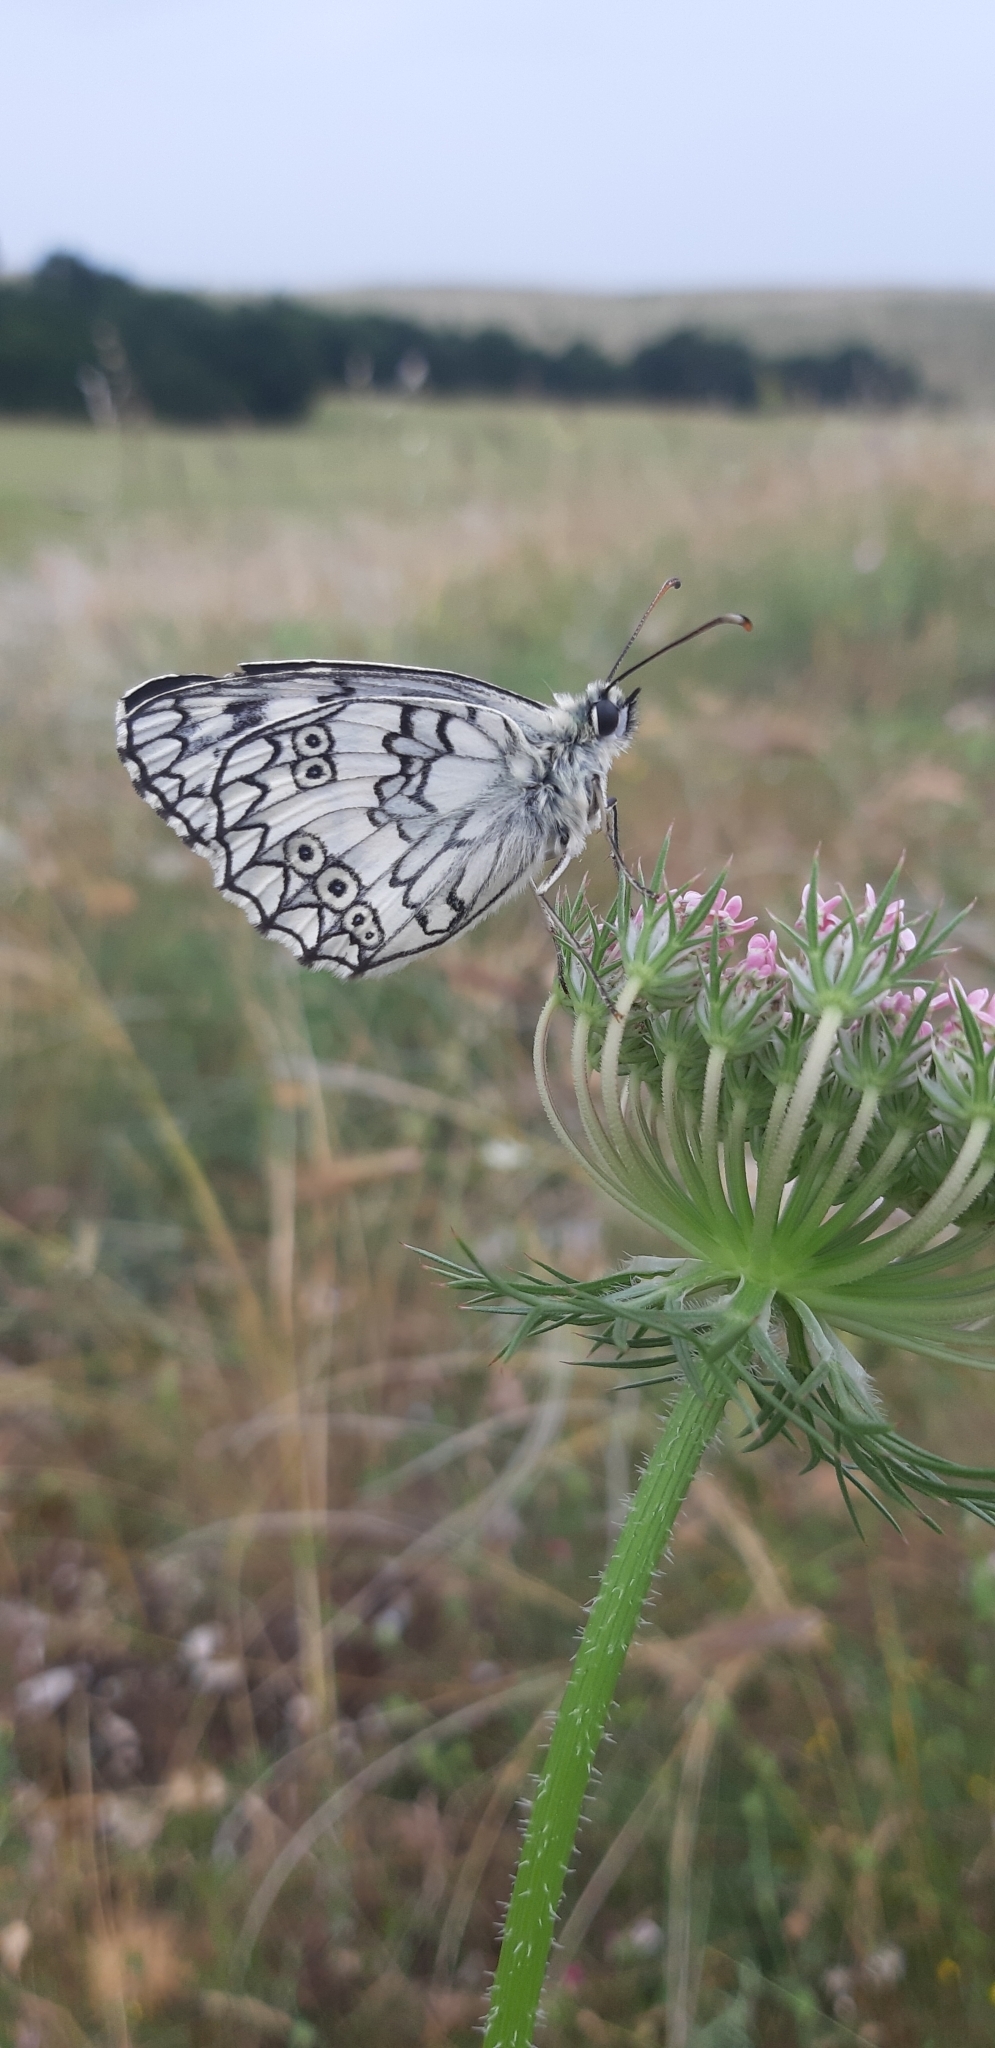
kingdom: Animalia
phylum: Arthropoda
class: Insecta
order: Lepidoptera
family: Nymphalidae
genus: Melanargia
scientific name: Melanargia japygia
